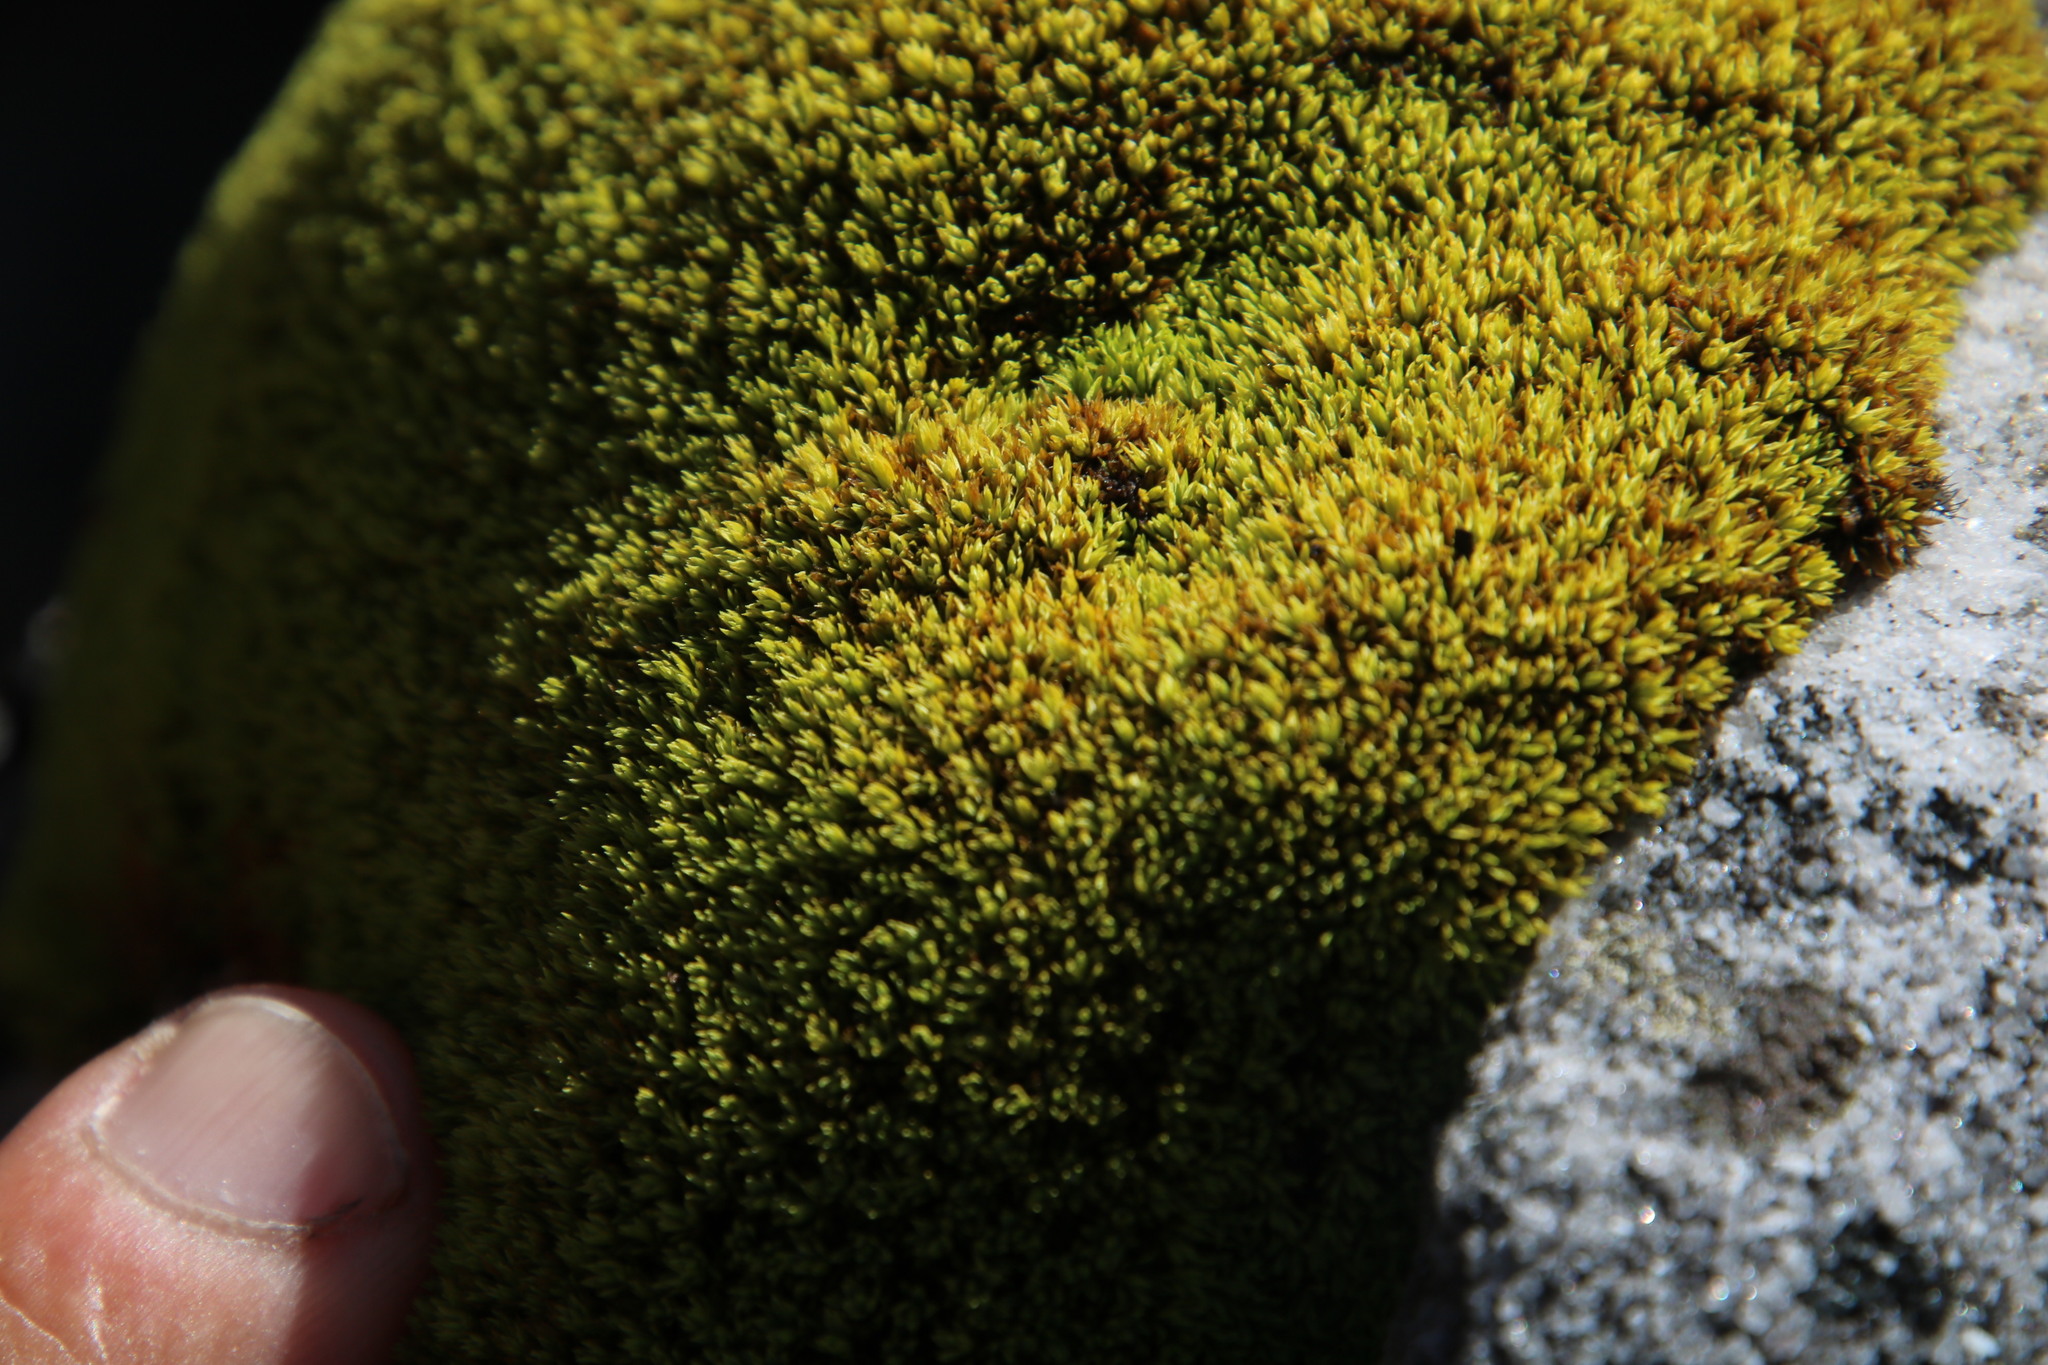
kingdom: Plantae
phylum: Bryophyta
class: Bryopsida
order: Dicranales
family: Hypodontiaceae
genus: Hypodontium
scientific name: Hypodontium pomiforme
